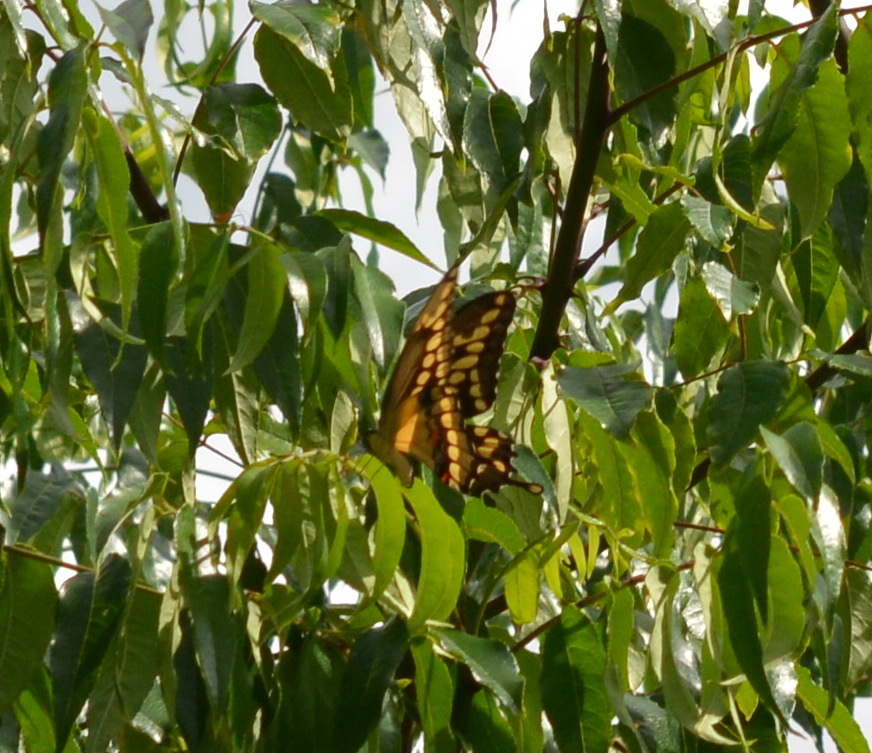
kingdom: Animalia
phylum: Arthropoda
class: Insecta
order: Lepidoptera
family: Papilionidae
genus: Papilio
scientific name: Papilio cresphontes
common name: Giant swallowtail
